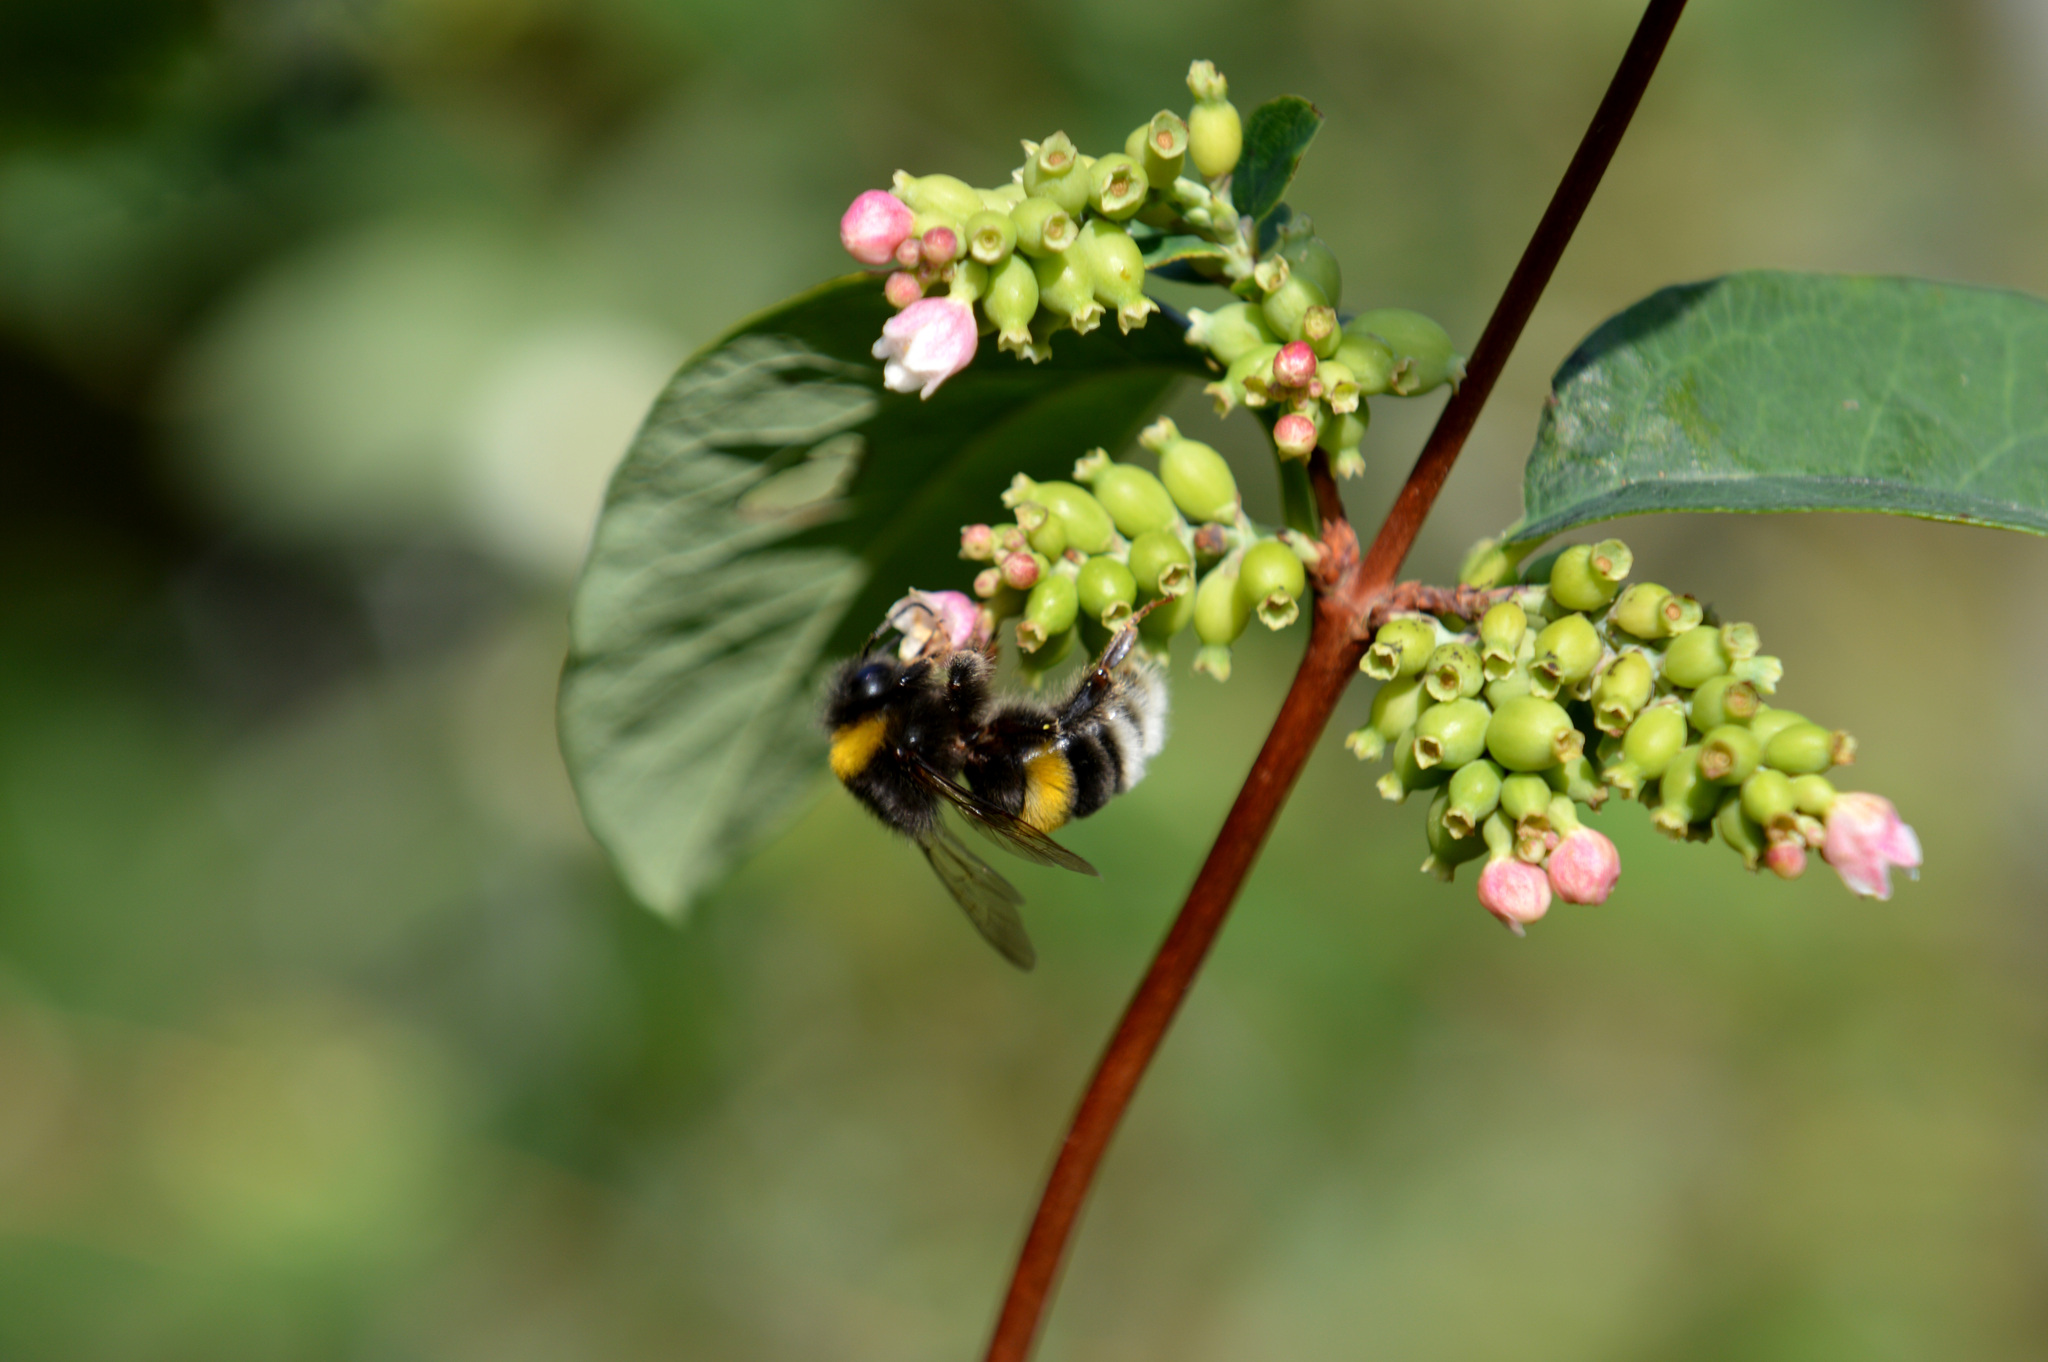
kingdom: Animalia
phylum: Arthropoda
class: Insecta
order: Hymenoptera
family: Apidae
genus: Bombus
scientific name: Bombus
